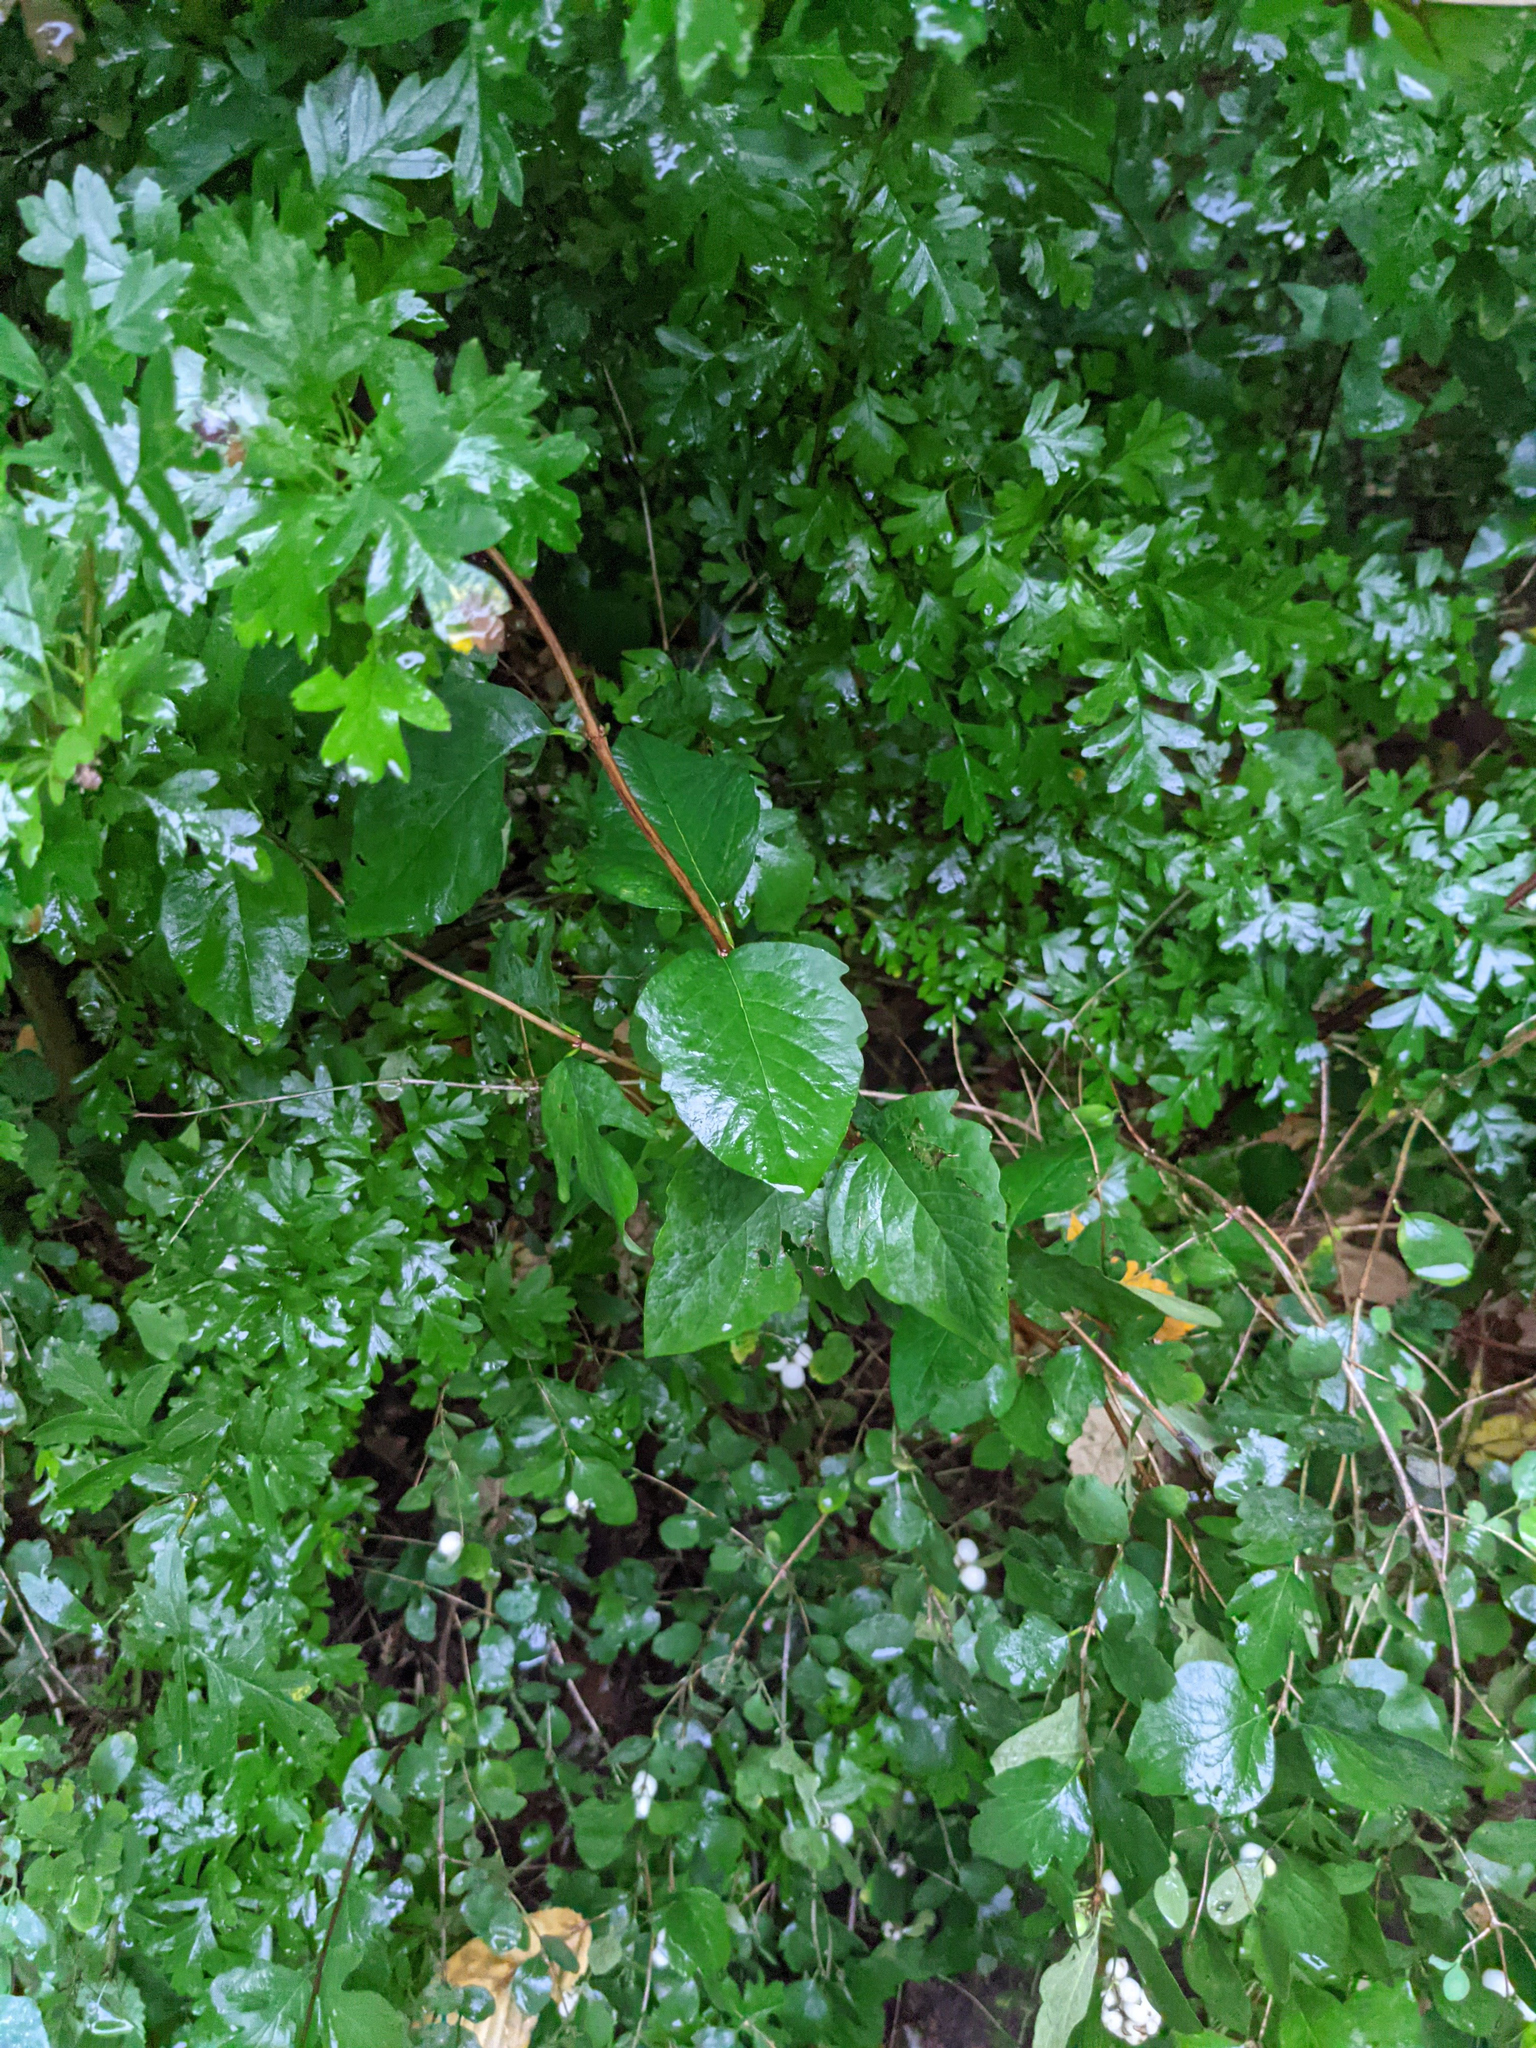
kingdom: Plantae
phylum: Tracheophyta
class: Magnoliopsida
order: Dipsacales
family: Caprifoliaceae
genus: Symphoricarpos
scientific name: Symphoricarpos albus
